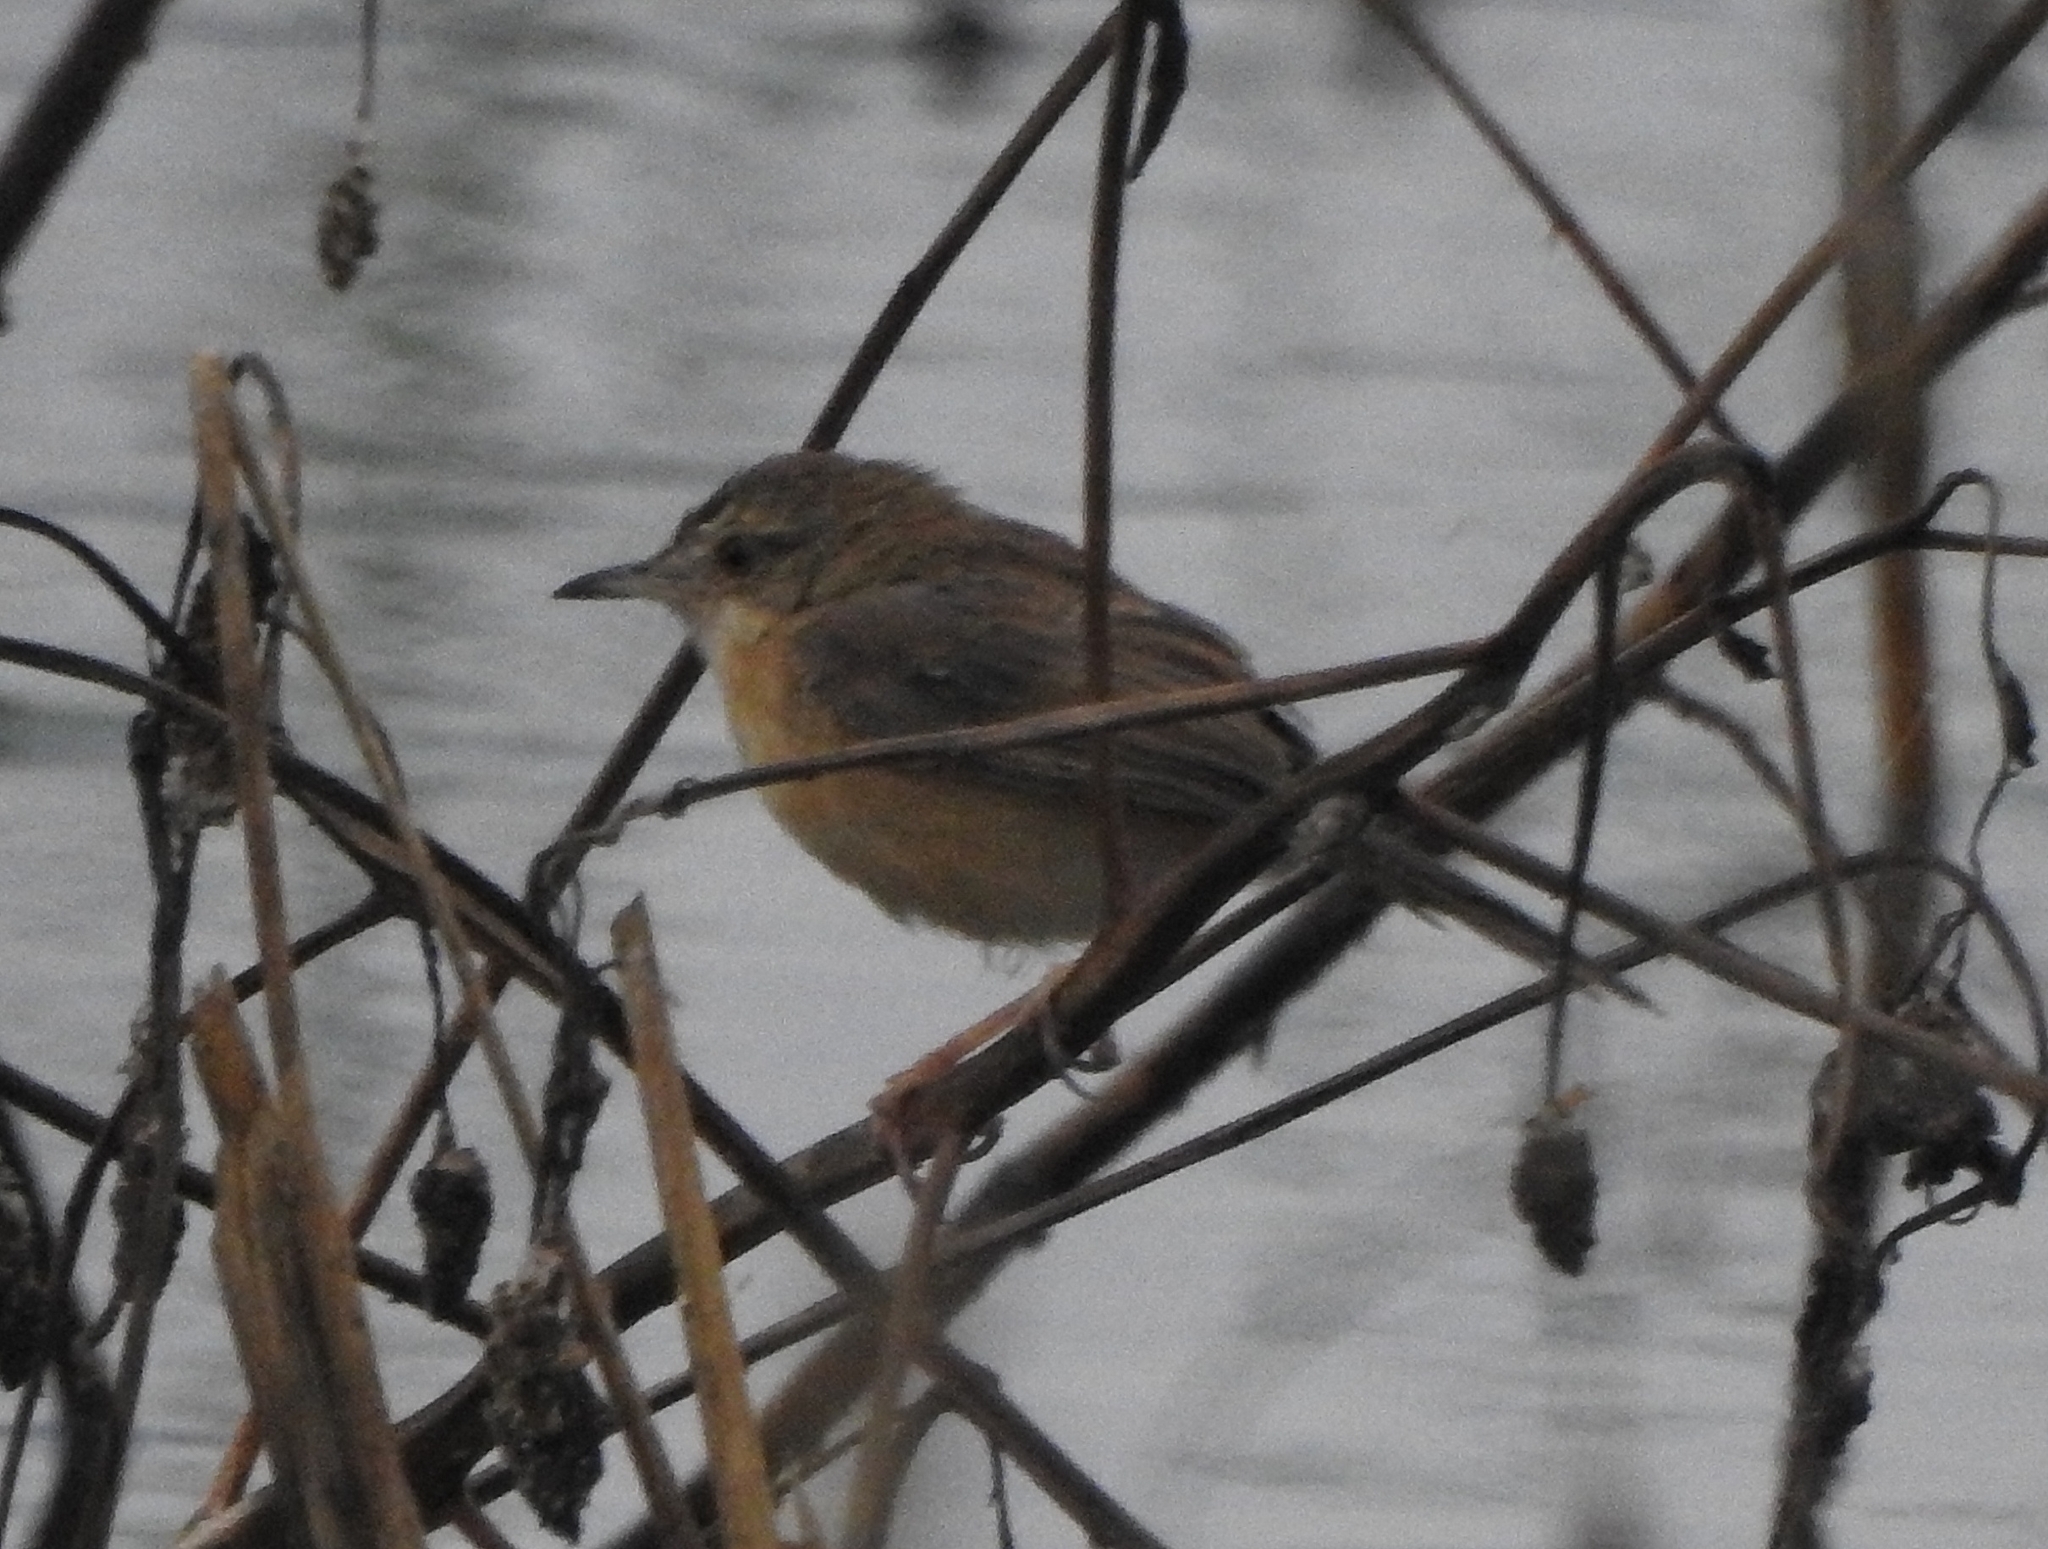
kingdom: Animalia
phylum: Chordata
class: Aves
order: Passeriformes
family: Cisticolidae
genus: Prinia
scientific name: Prinia inornata
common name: Plain prinia
